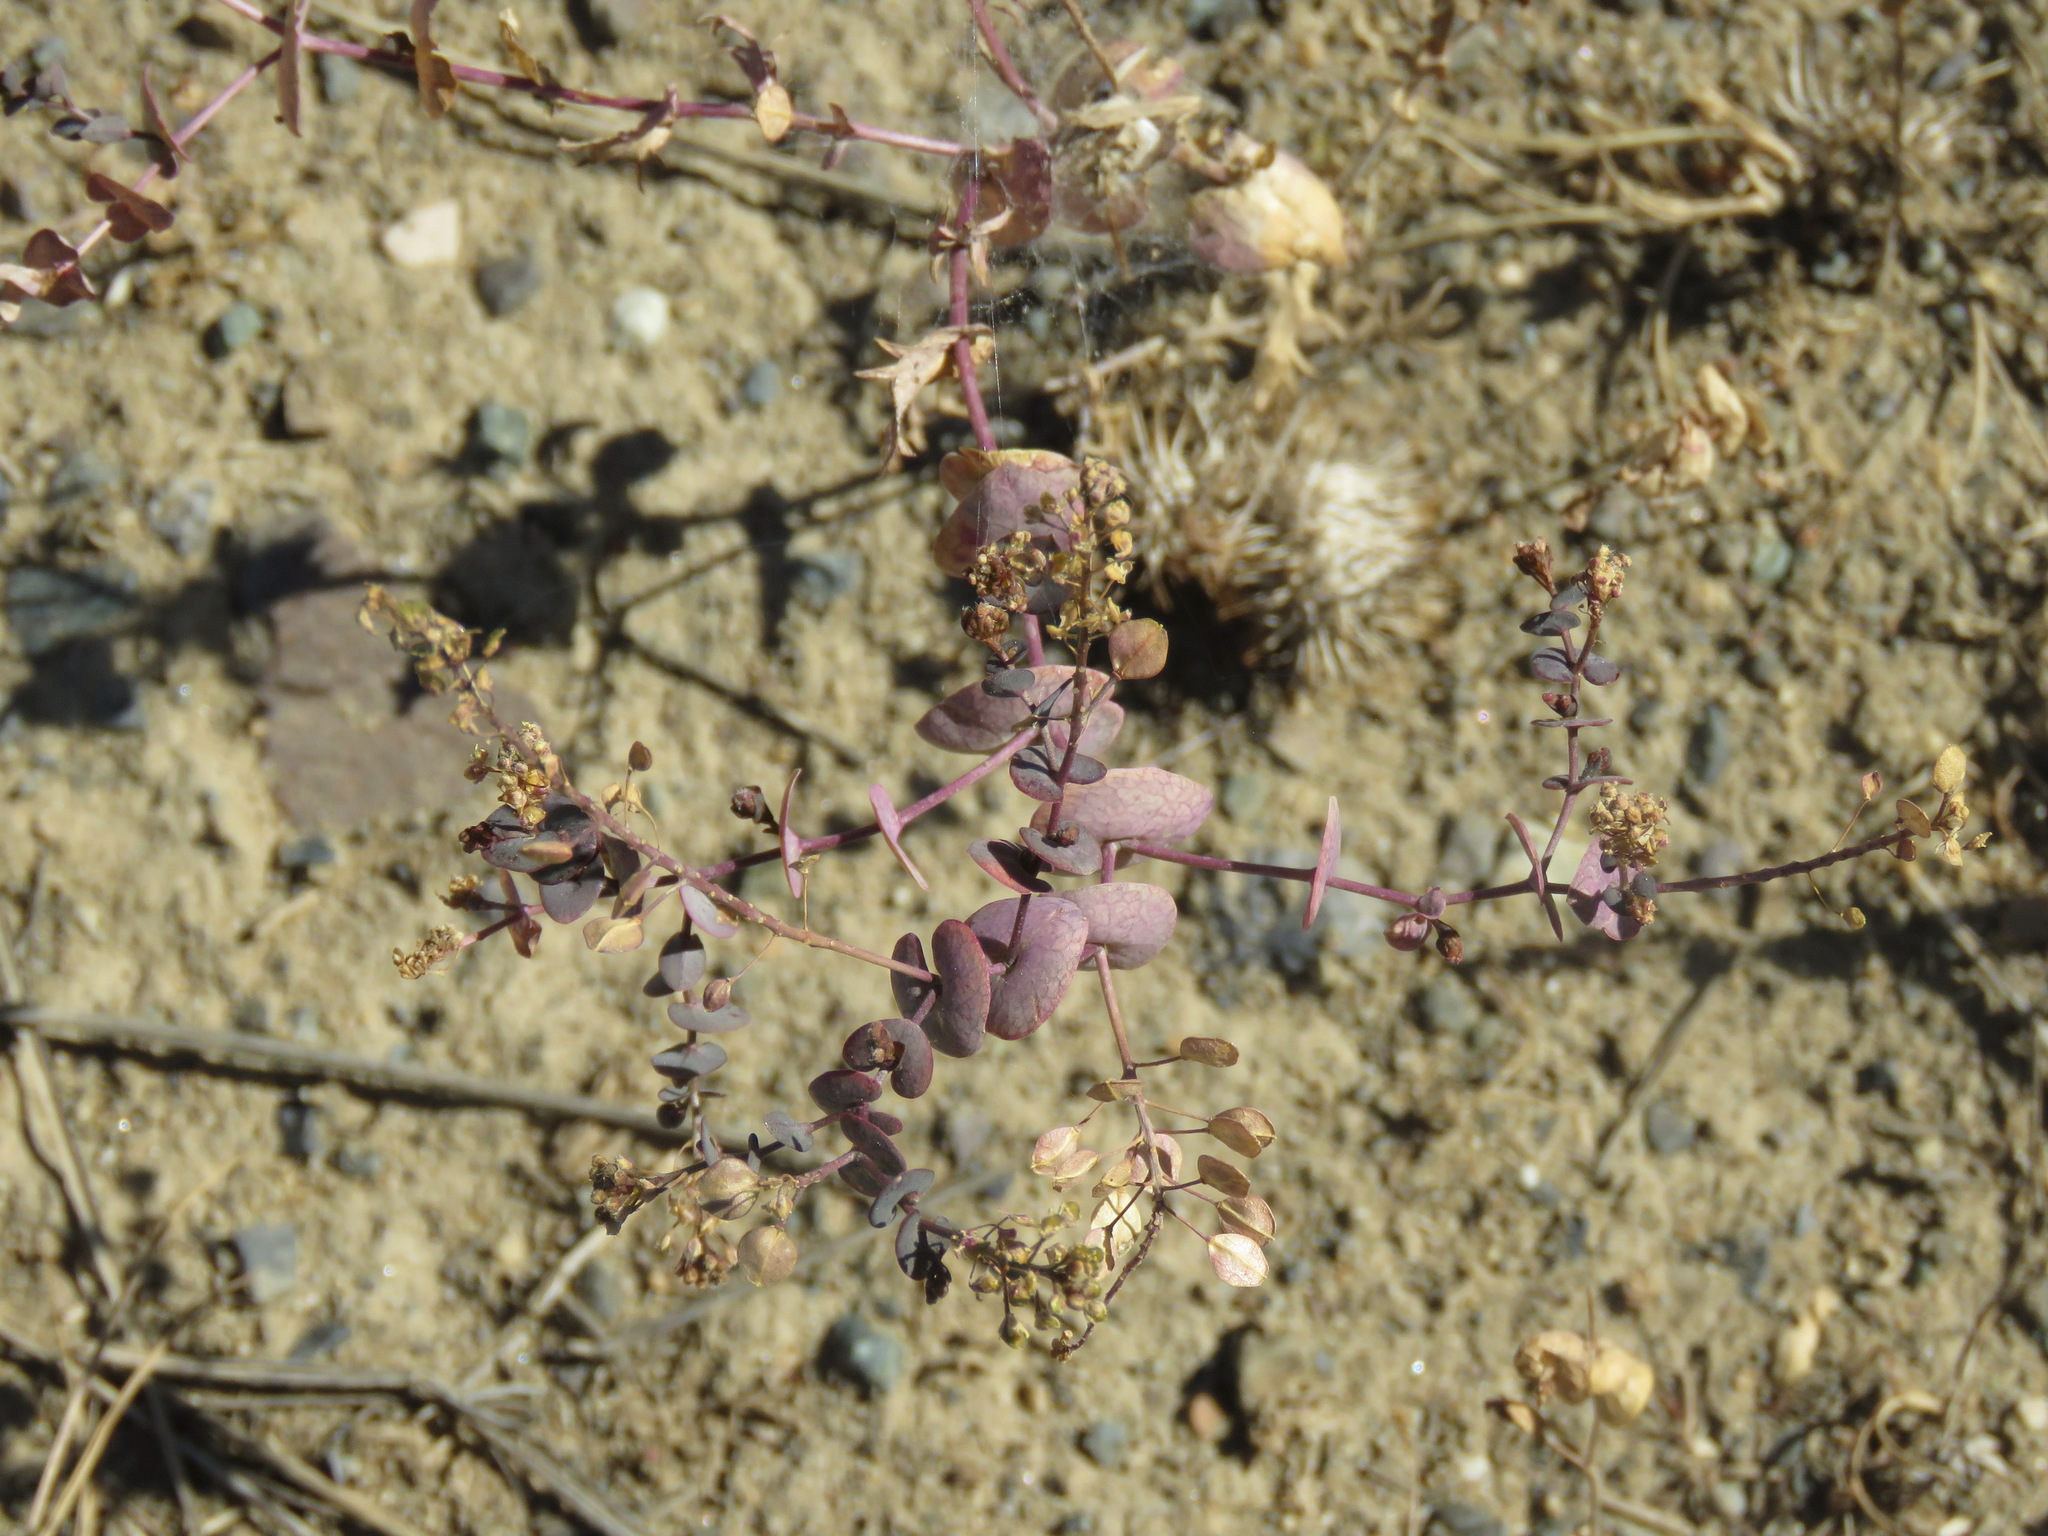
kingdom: Plantae
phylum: Tracheophyta
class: Magnoliopsida
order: Brassicales
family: Brassicaceae
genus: Lepidium
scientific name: Lepidium perfoliatum
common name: Perfoliate pepperwort
